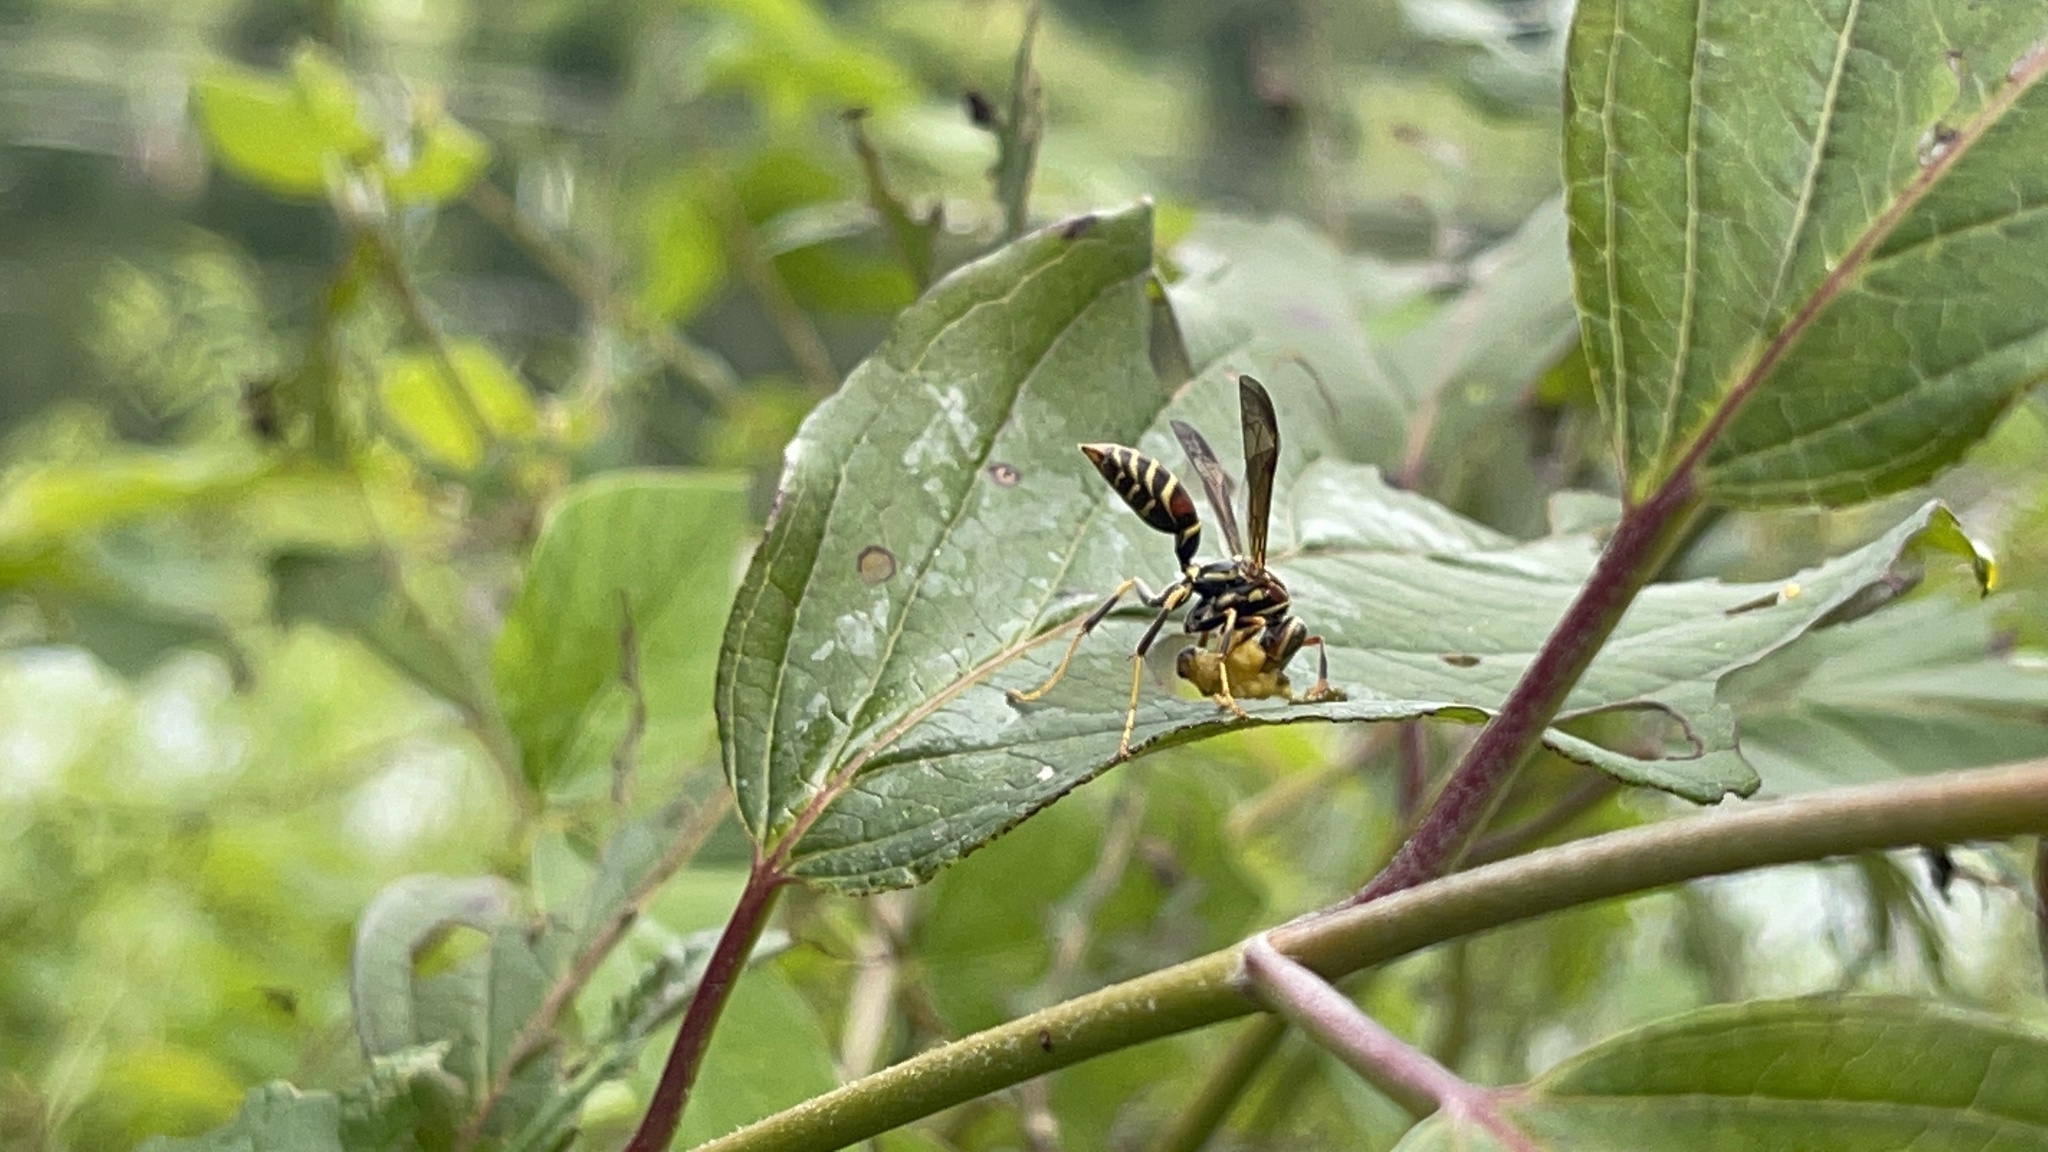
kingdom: Animalia
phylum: Arthropoda
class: Insecta
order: Hymenoptera
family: Eumenidae
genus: Polistes
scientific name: Polistes exclamans
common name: Paper wasp
